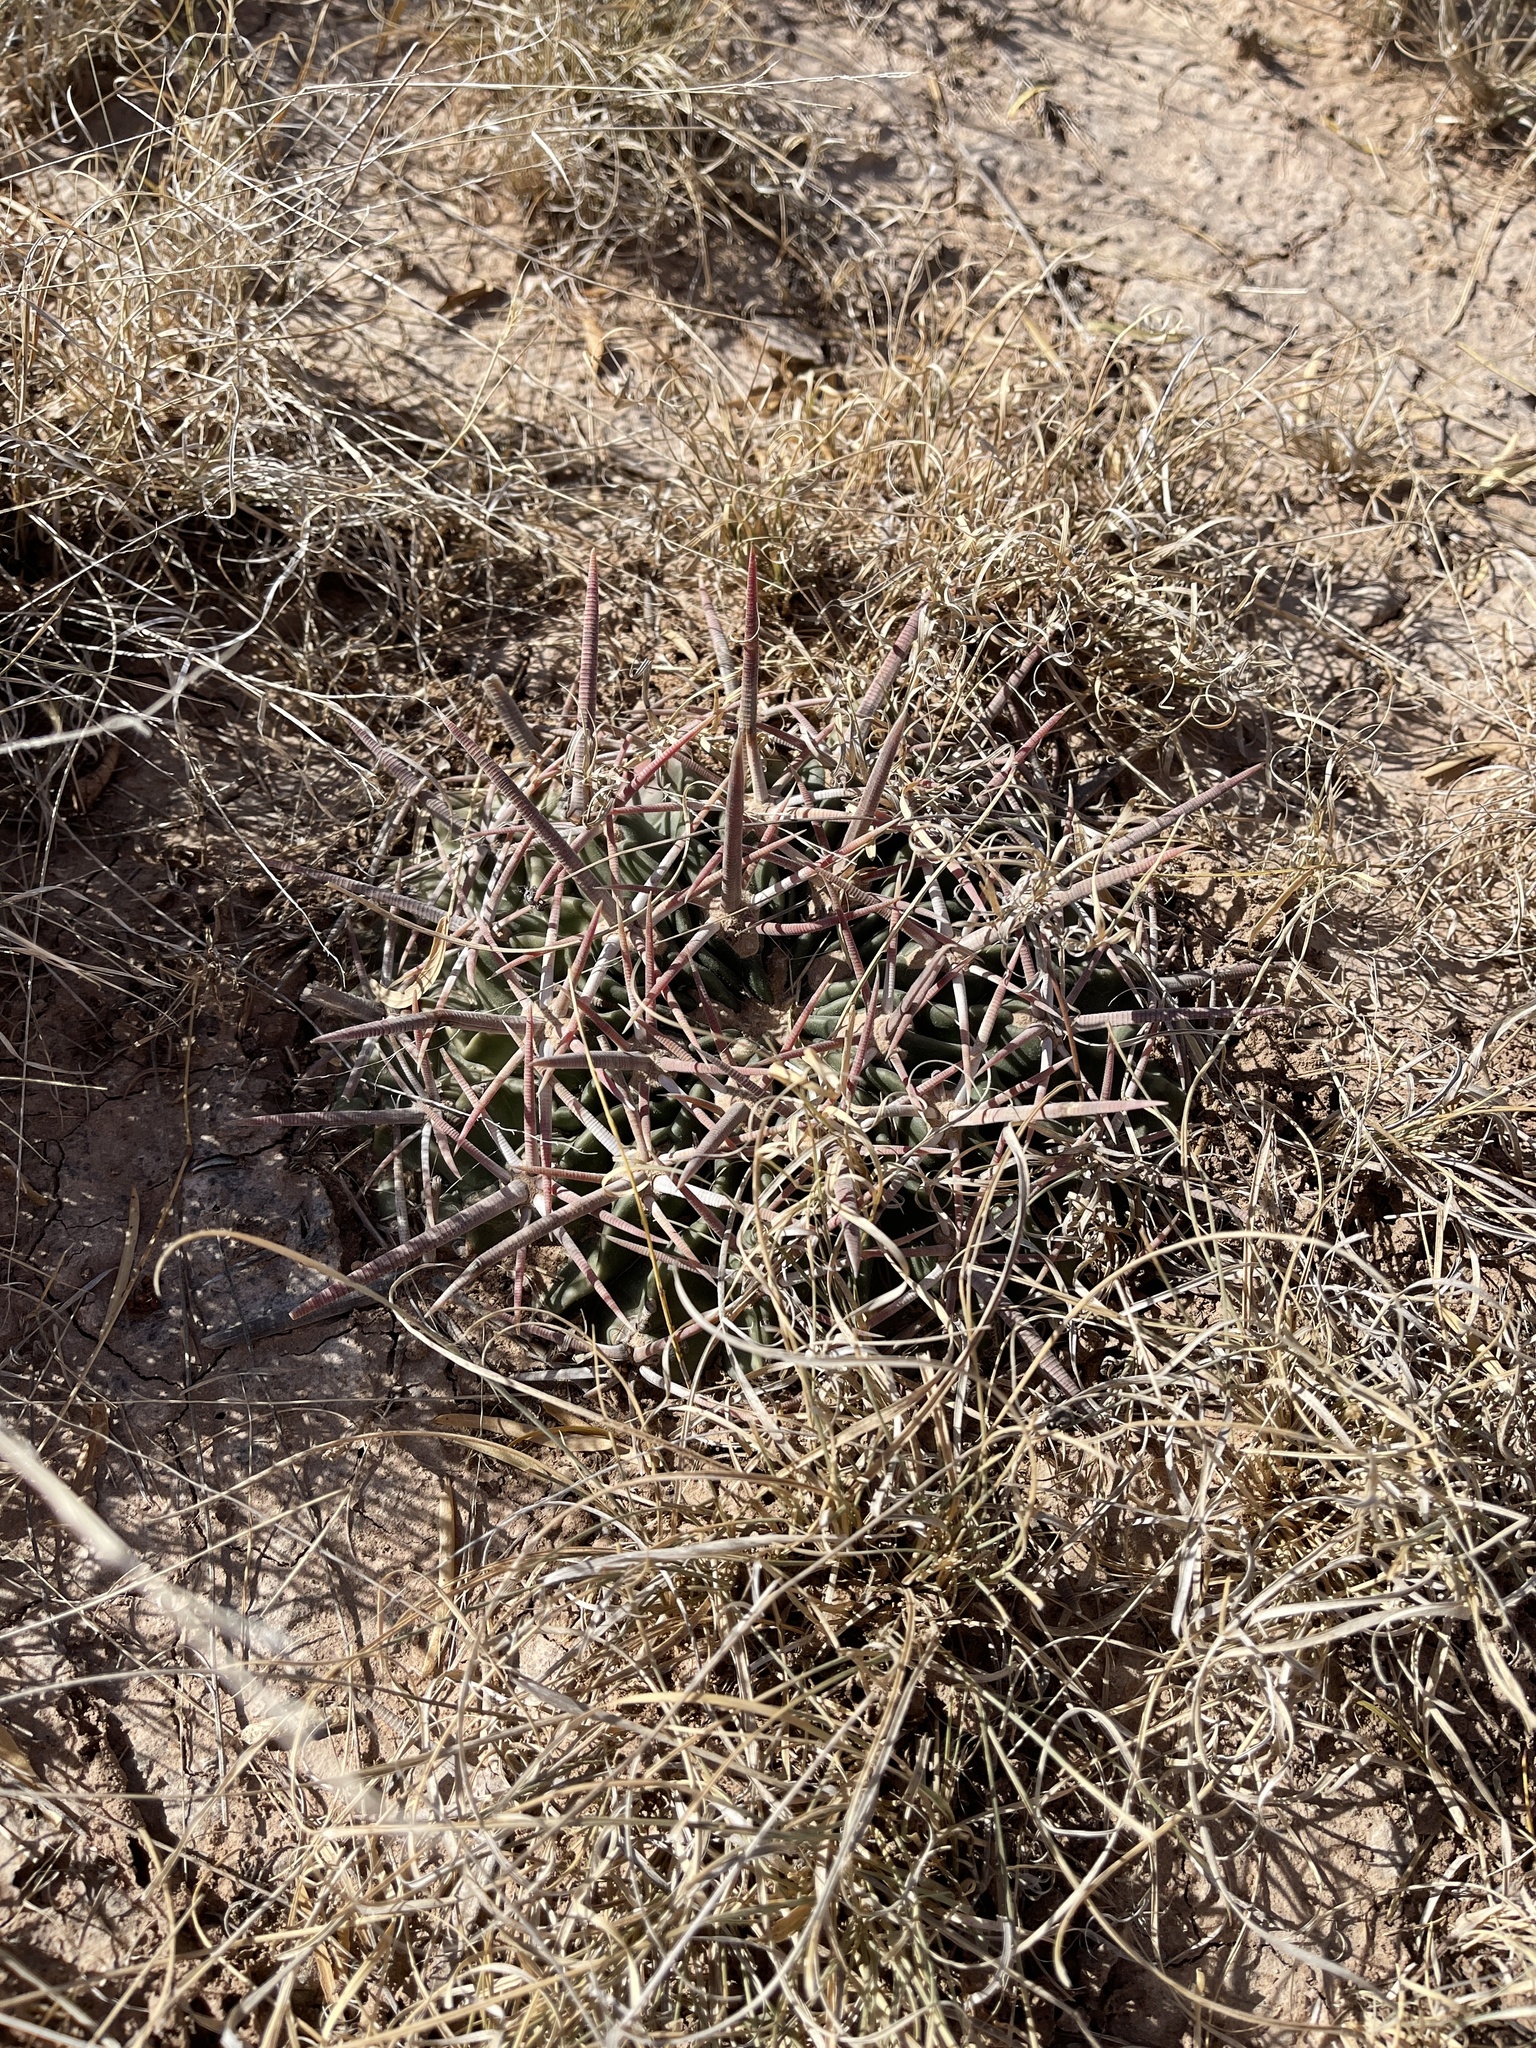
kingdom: Plantae
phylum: Tracheophyta
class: Magnoliopsida
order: Caryophyllales
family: Cactaceae
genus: Echinocactus
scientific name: Echinocactus texensis
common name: Devil's pincushion
